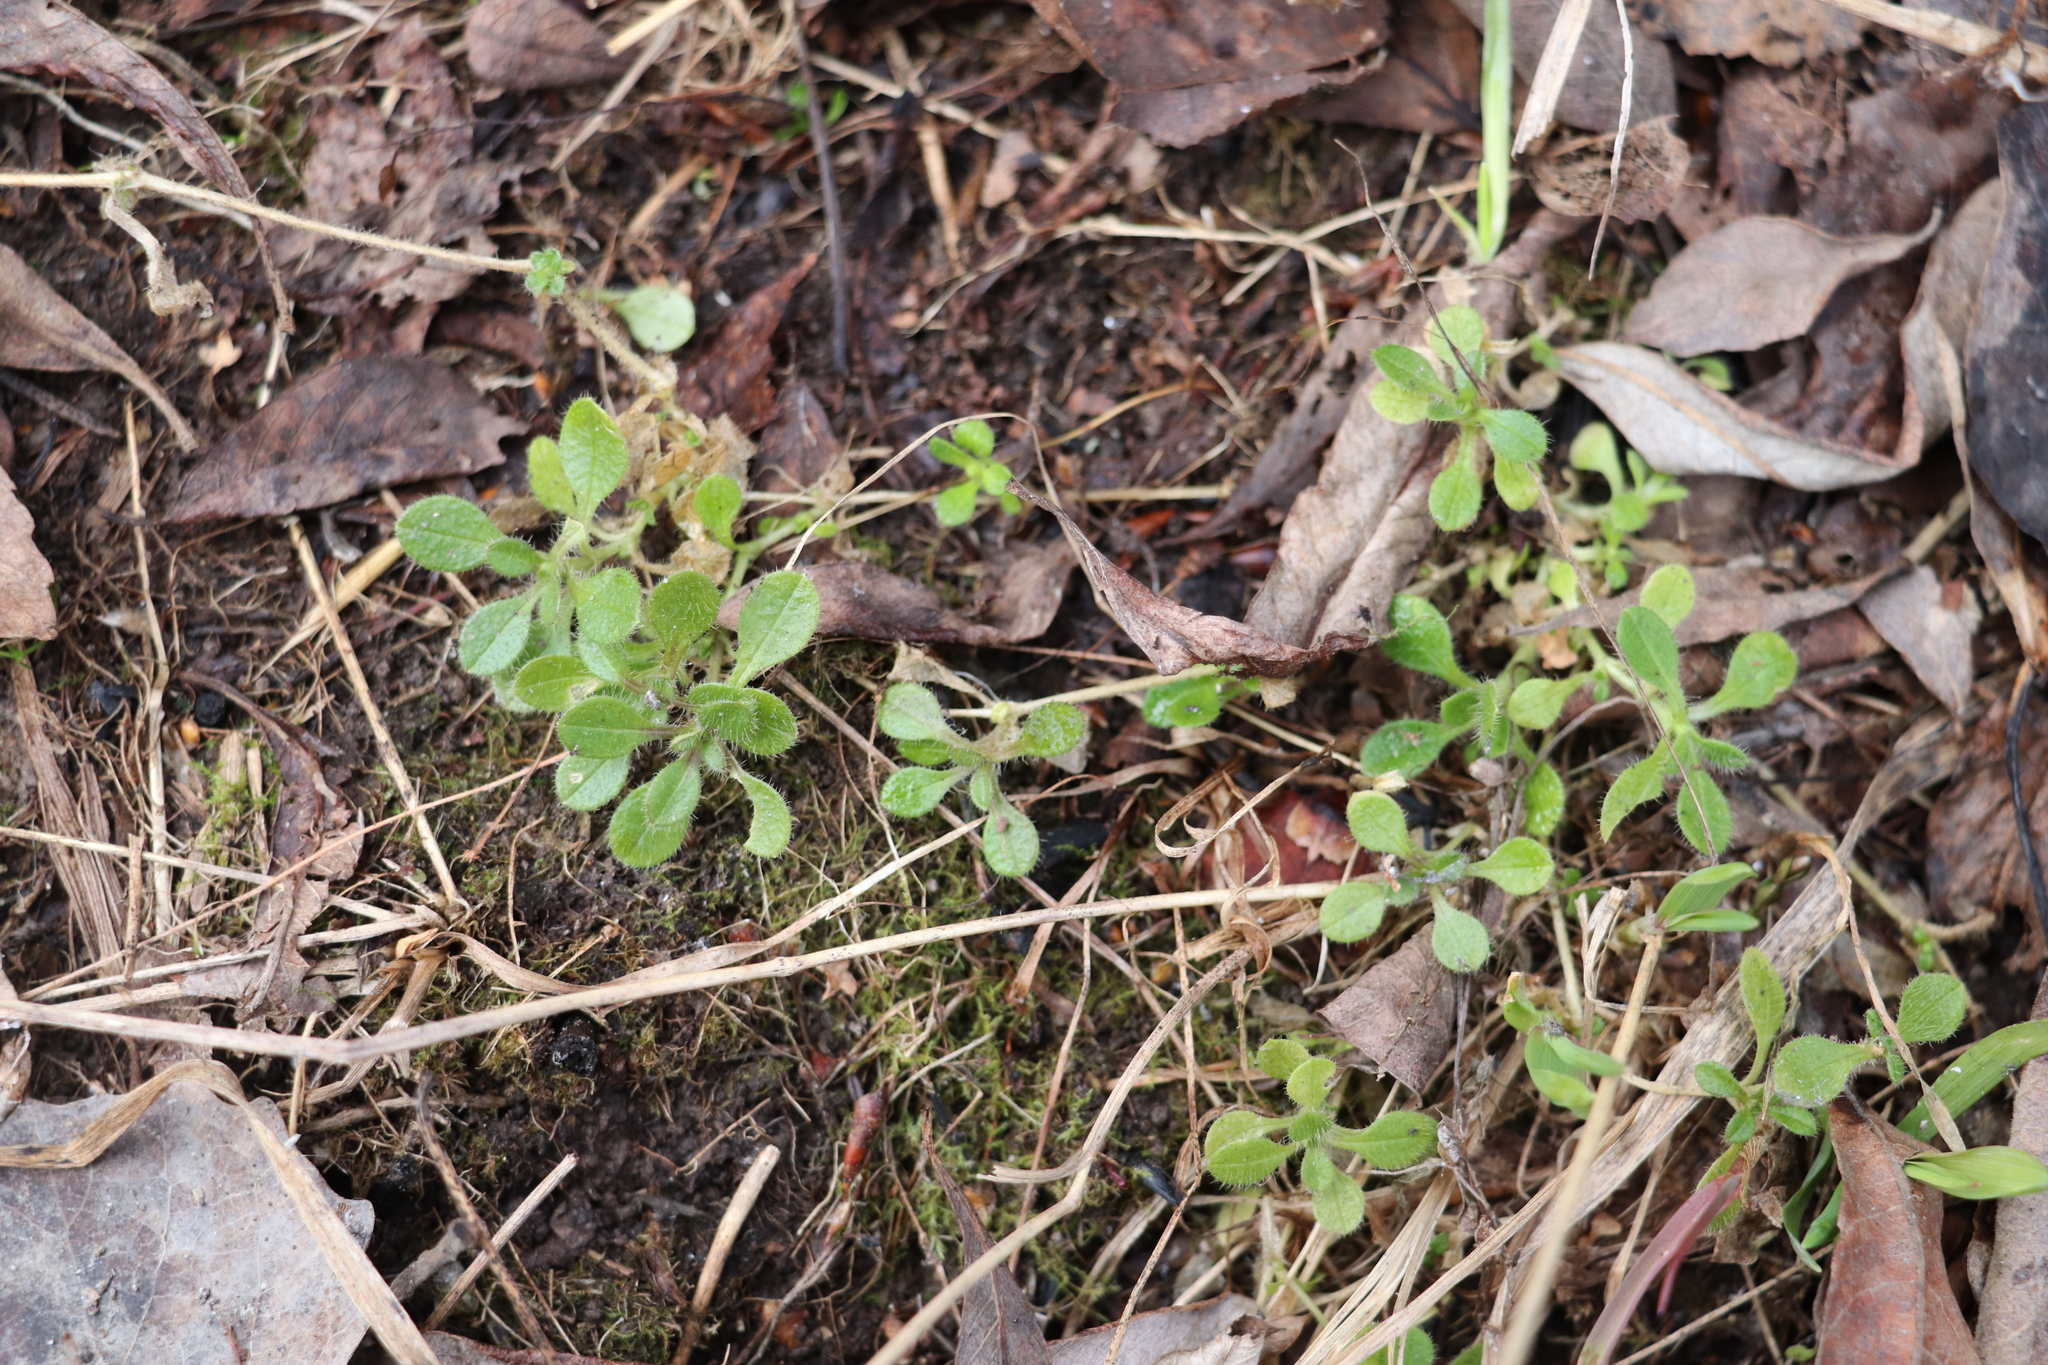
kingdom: Plantae
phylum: Tracheophyta
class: Magnoliopsida
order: Caryophyllales
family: Caryophyllaceae
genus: Cerastium
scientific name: Cerastium holosteoides
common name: Big chickweed
